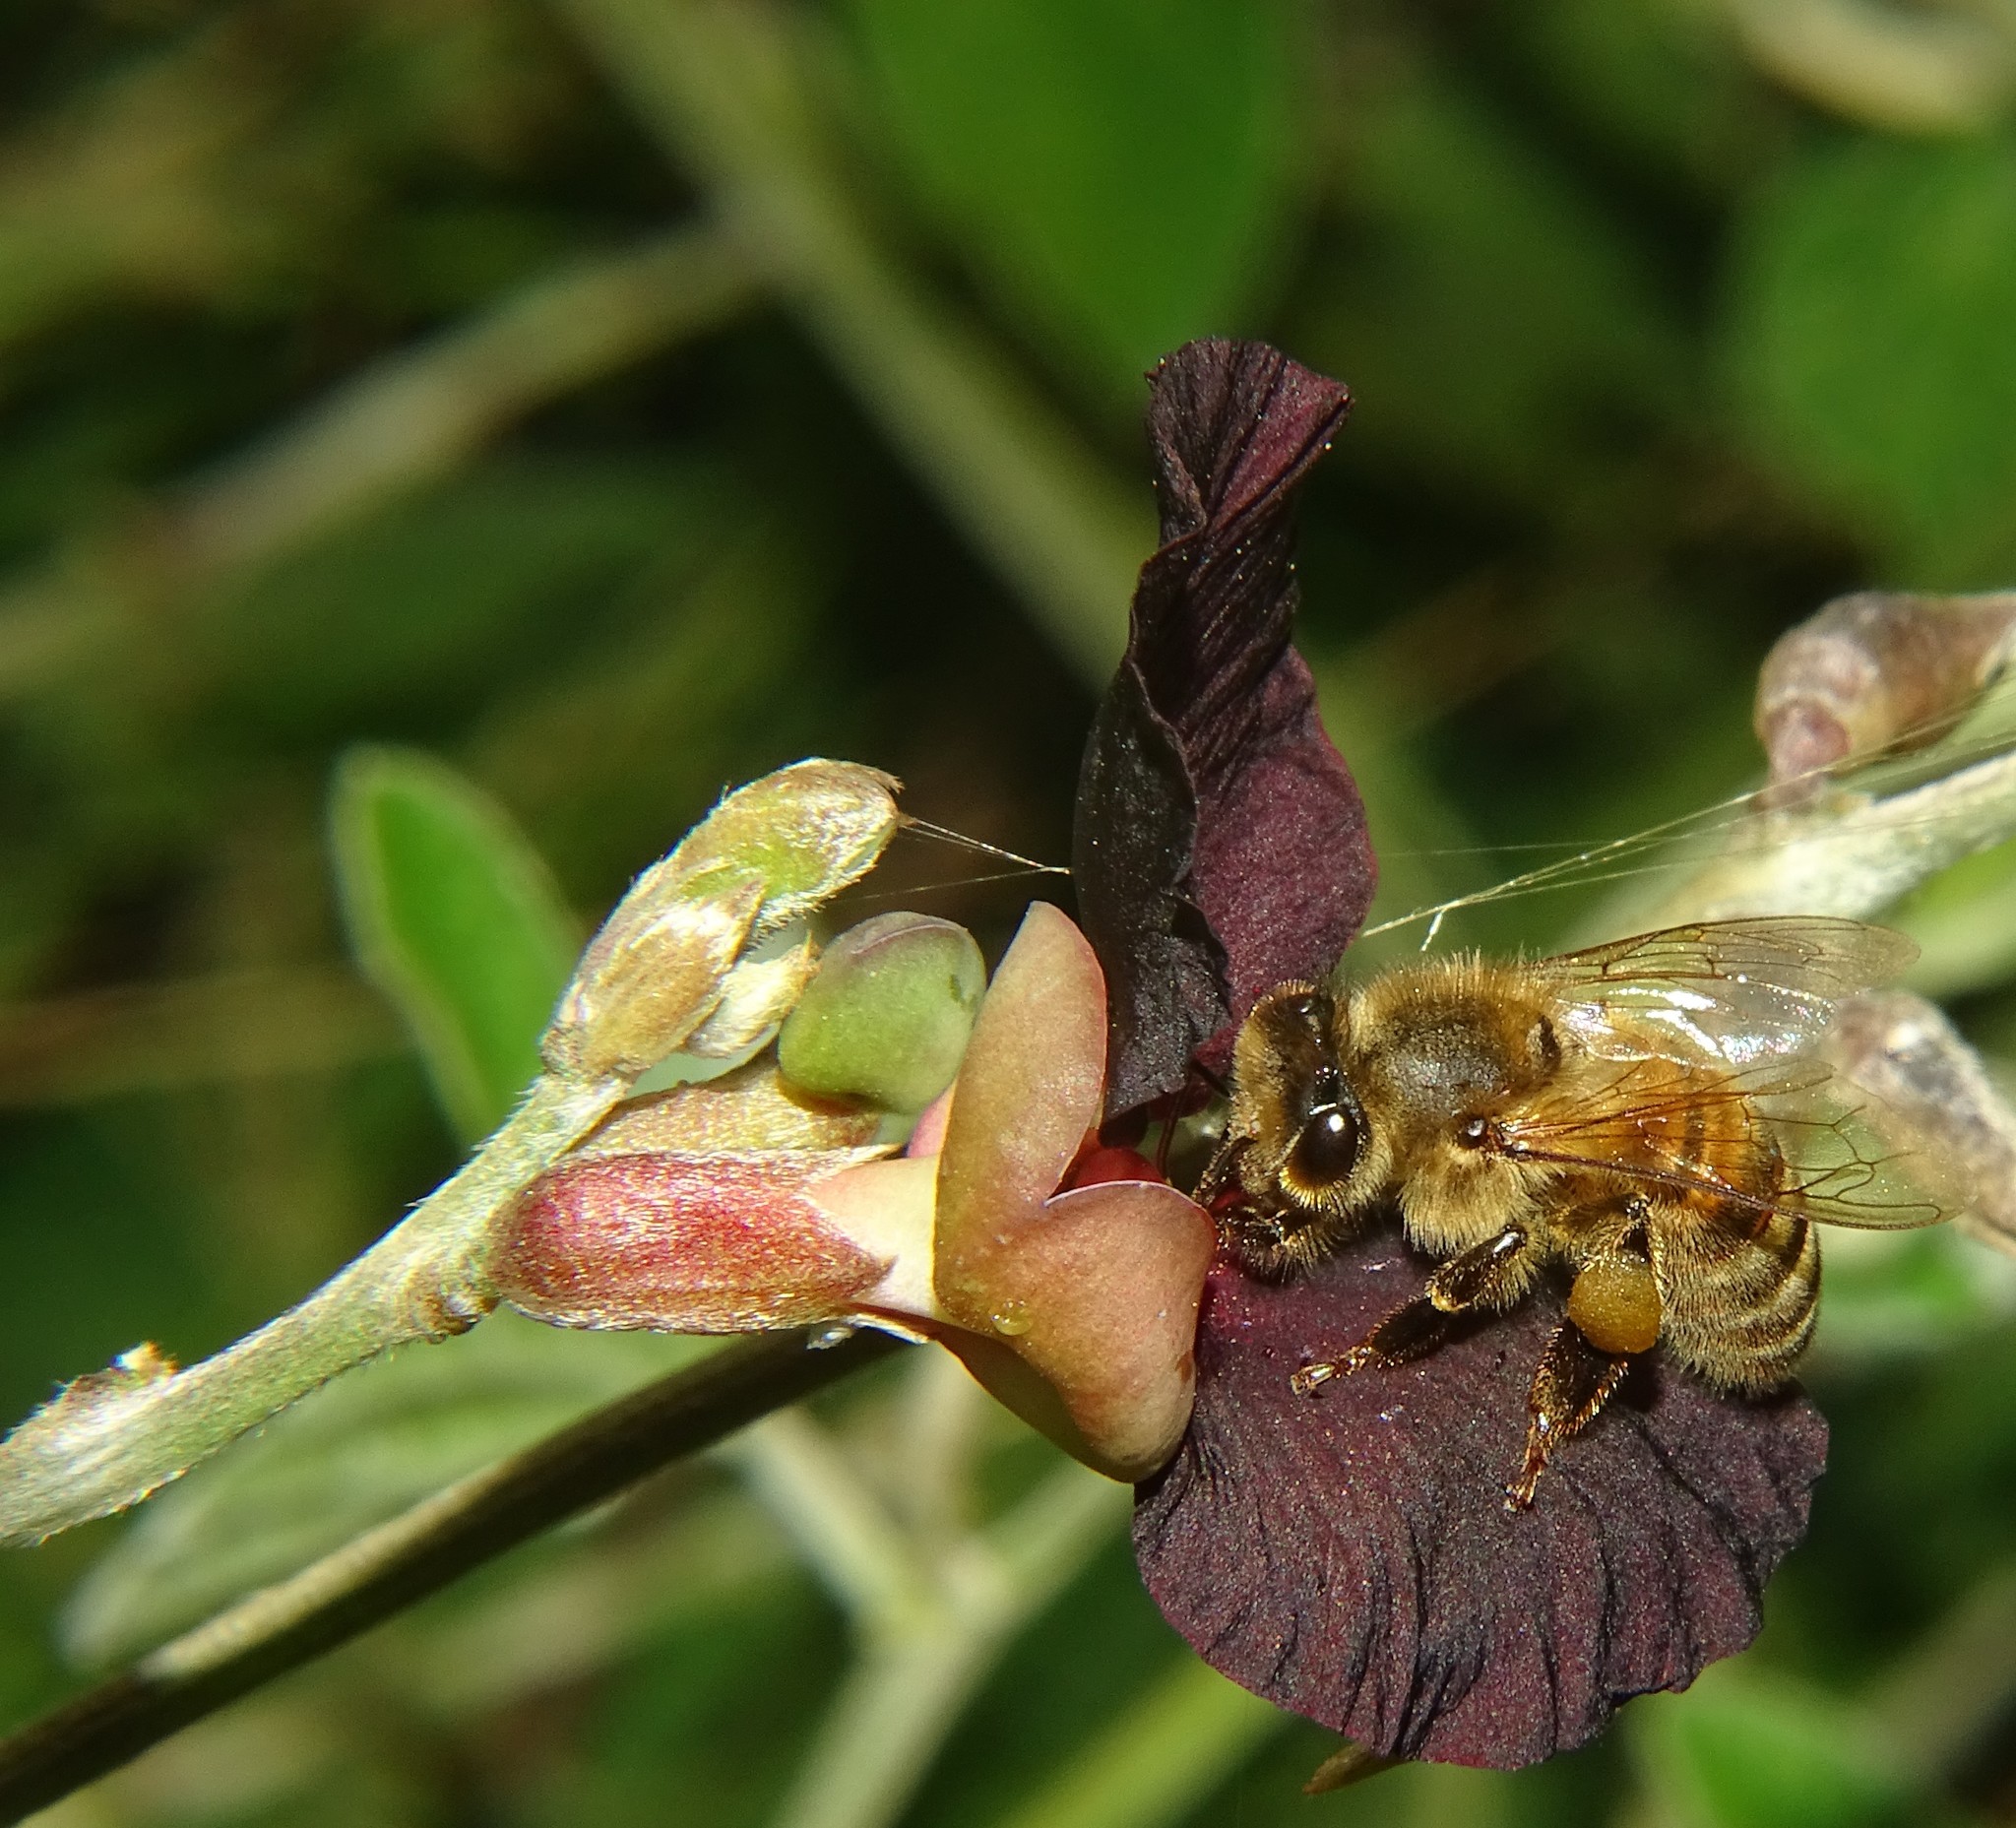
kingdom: Animalia
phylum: Arthropoda
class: Insecta
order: Hymenoptera
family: Apidae
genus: Apis
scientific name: Apis mellifera
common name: Honey bee
